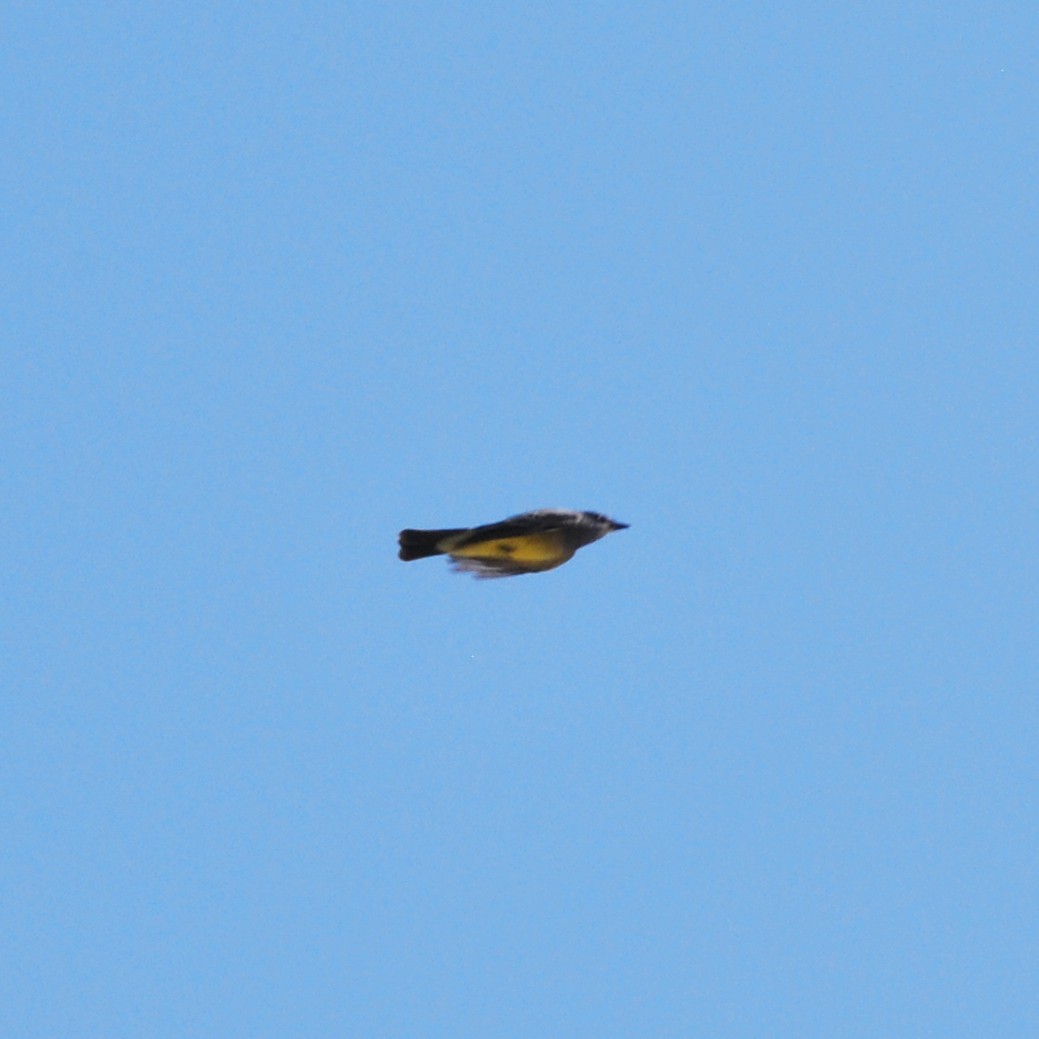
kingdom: Animalia
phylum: Chordata
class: Aves
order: Passeriformes
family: Tyrannidae
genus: Tyrannus
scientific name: Tyrannus vociferans
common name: Cassin's kingbird
